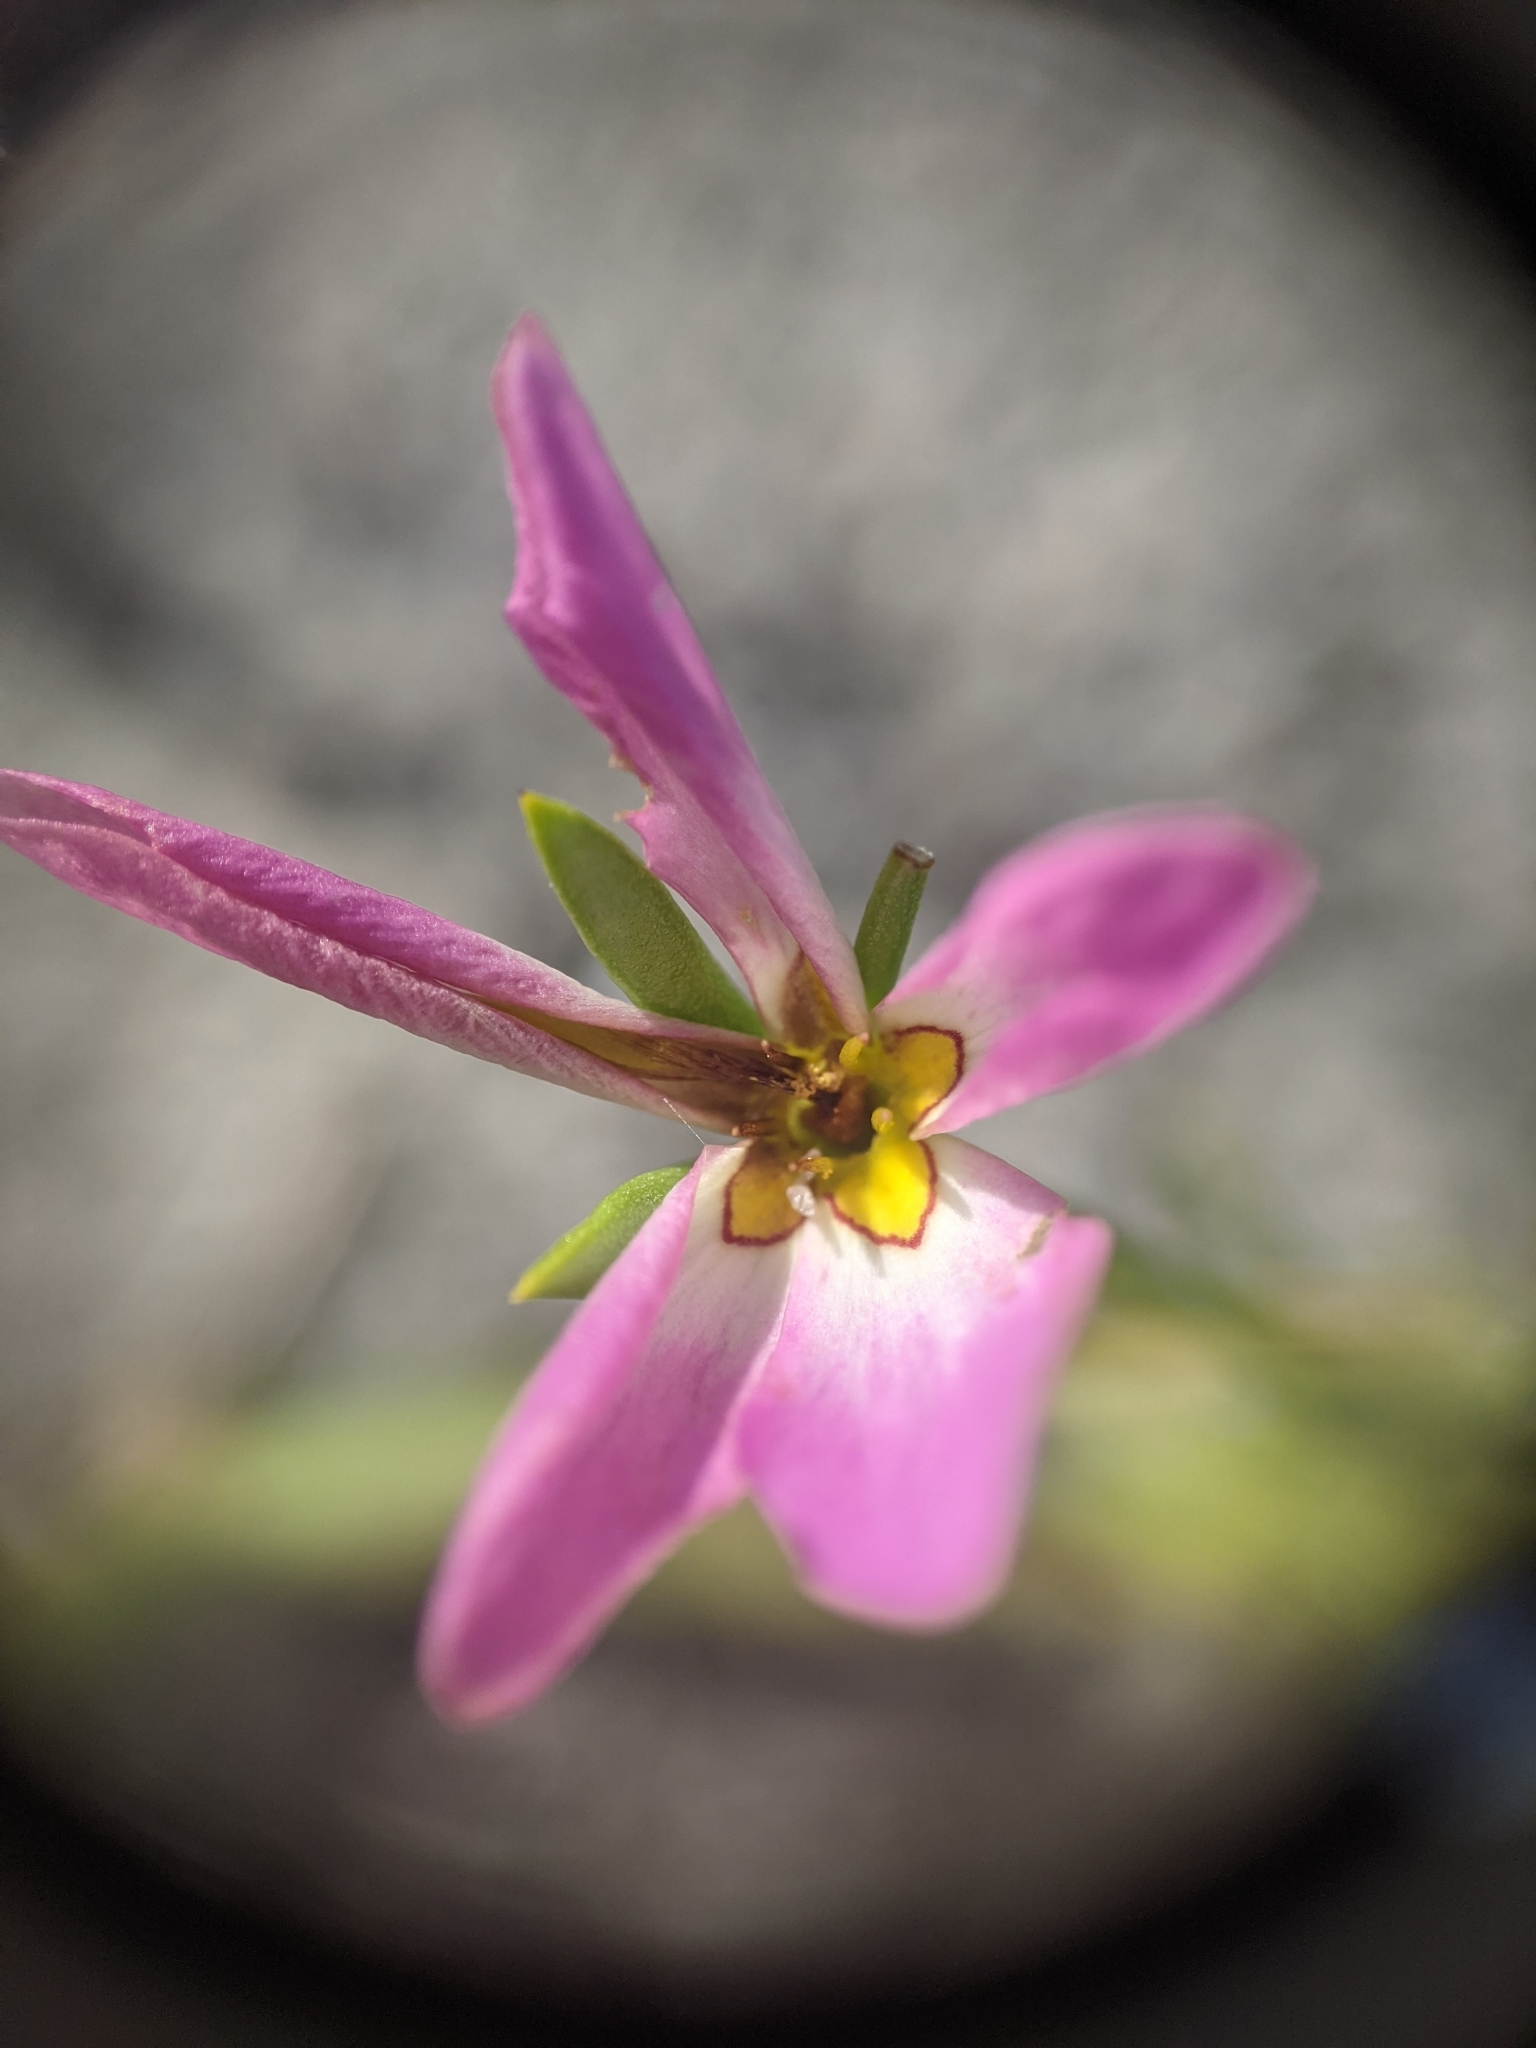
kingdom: Plantae
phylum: Tracheophyta
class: Magnoliopsida
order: Gentianales
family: Gentianaceae
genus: Sabatia
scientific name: Sabatia stellaris
